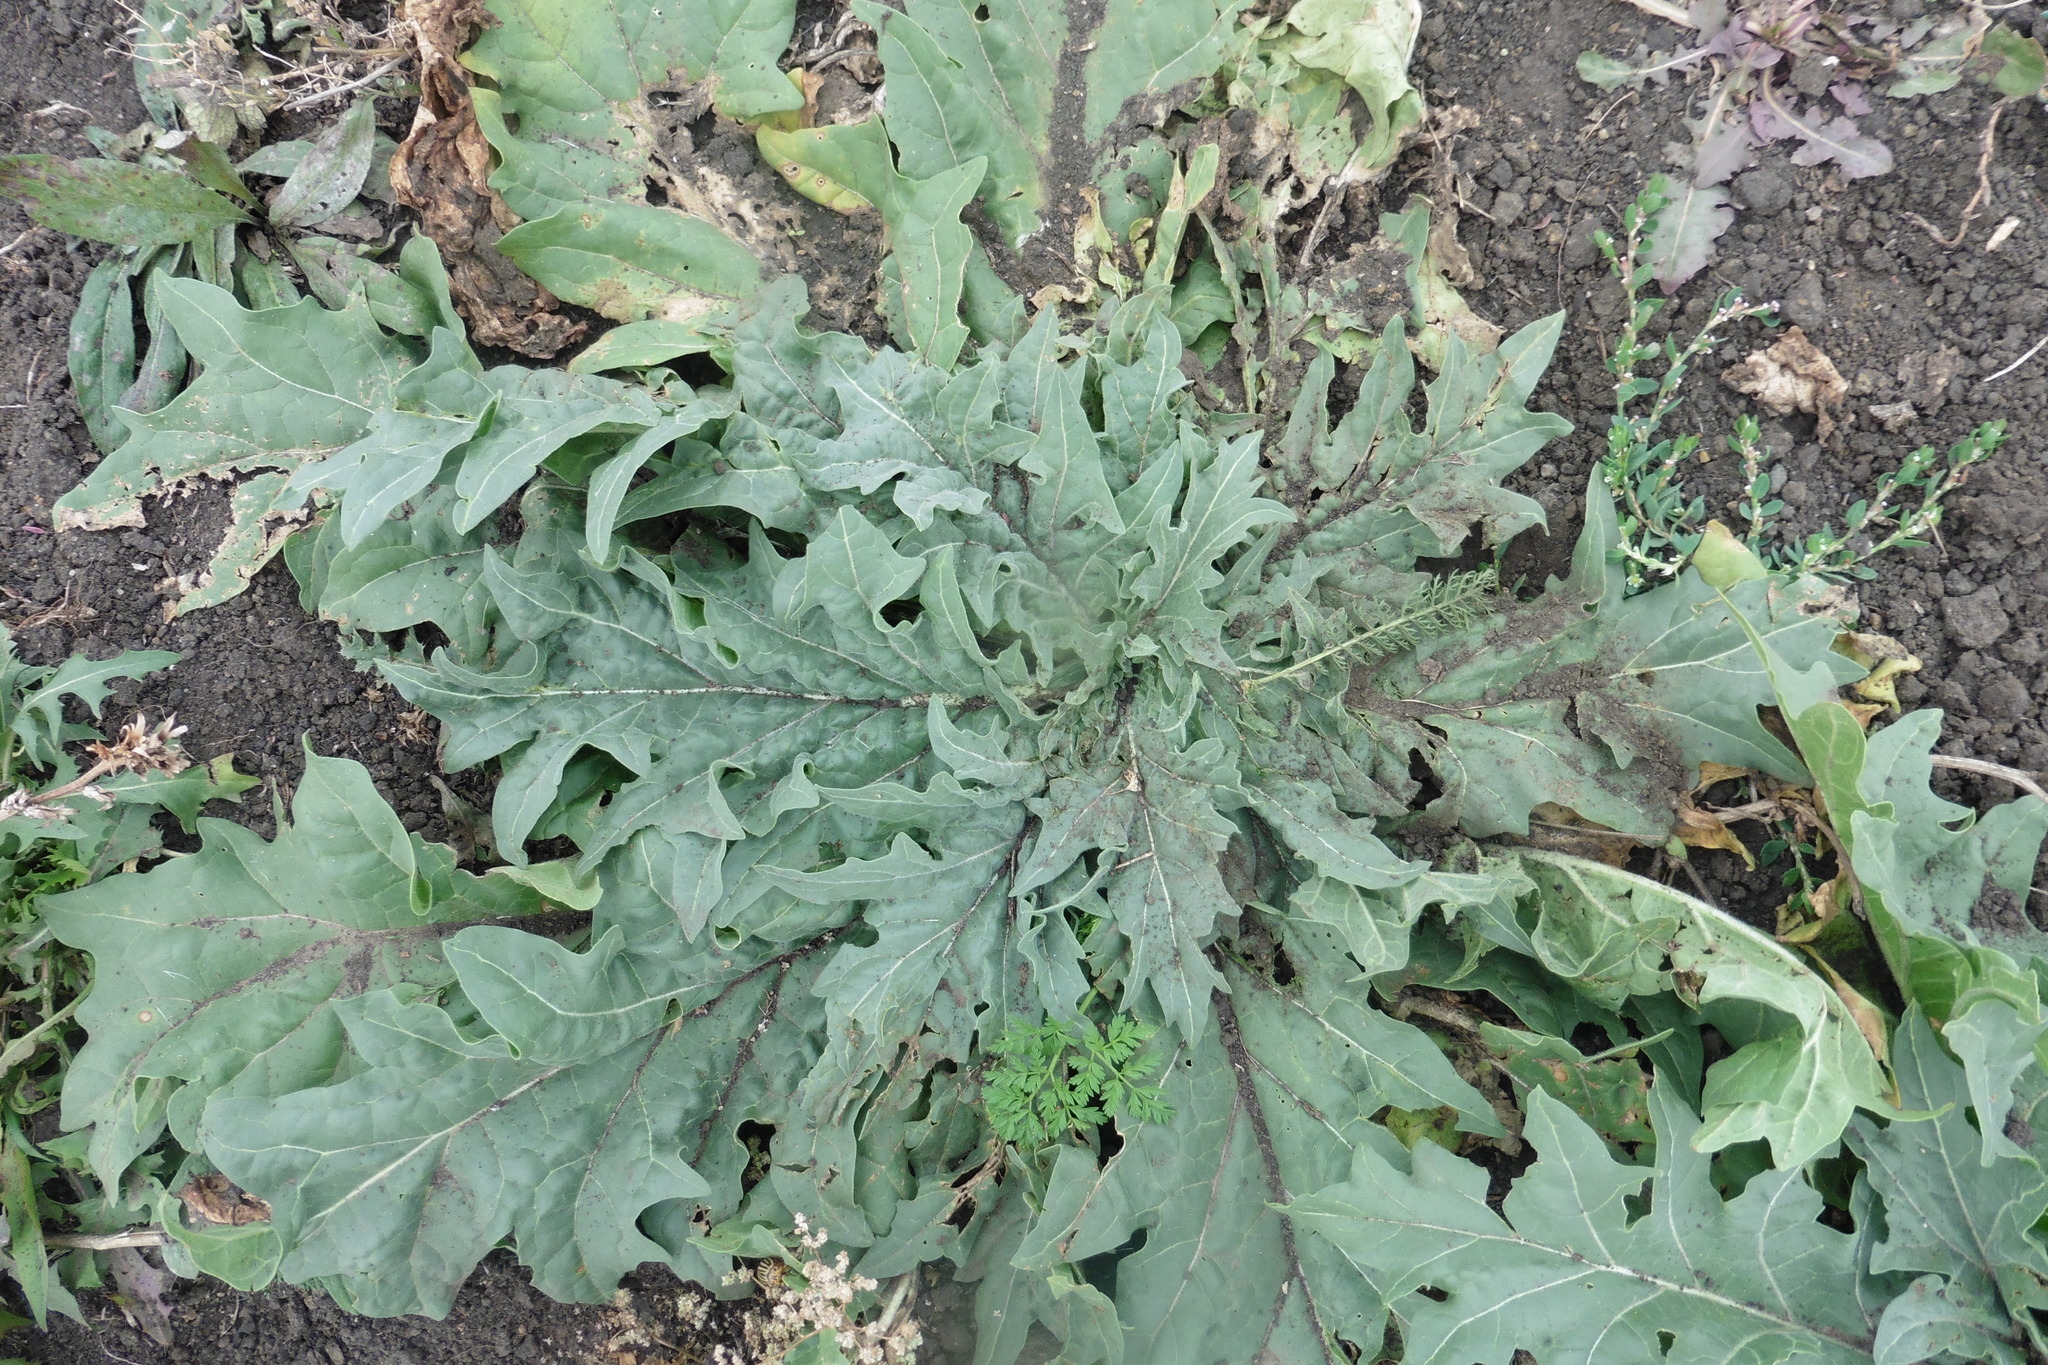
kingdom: Plantae
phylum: Tracheophyta
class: Magnoliopsida
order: Solanales
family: Solanaceae
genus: Hyoscyamus
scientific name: Hyoscyamus niger
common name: Henbane
